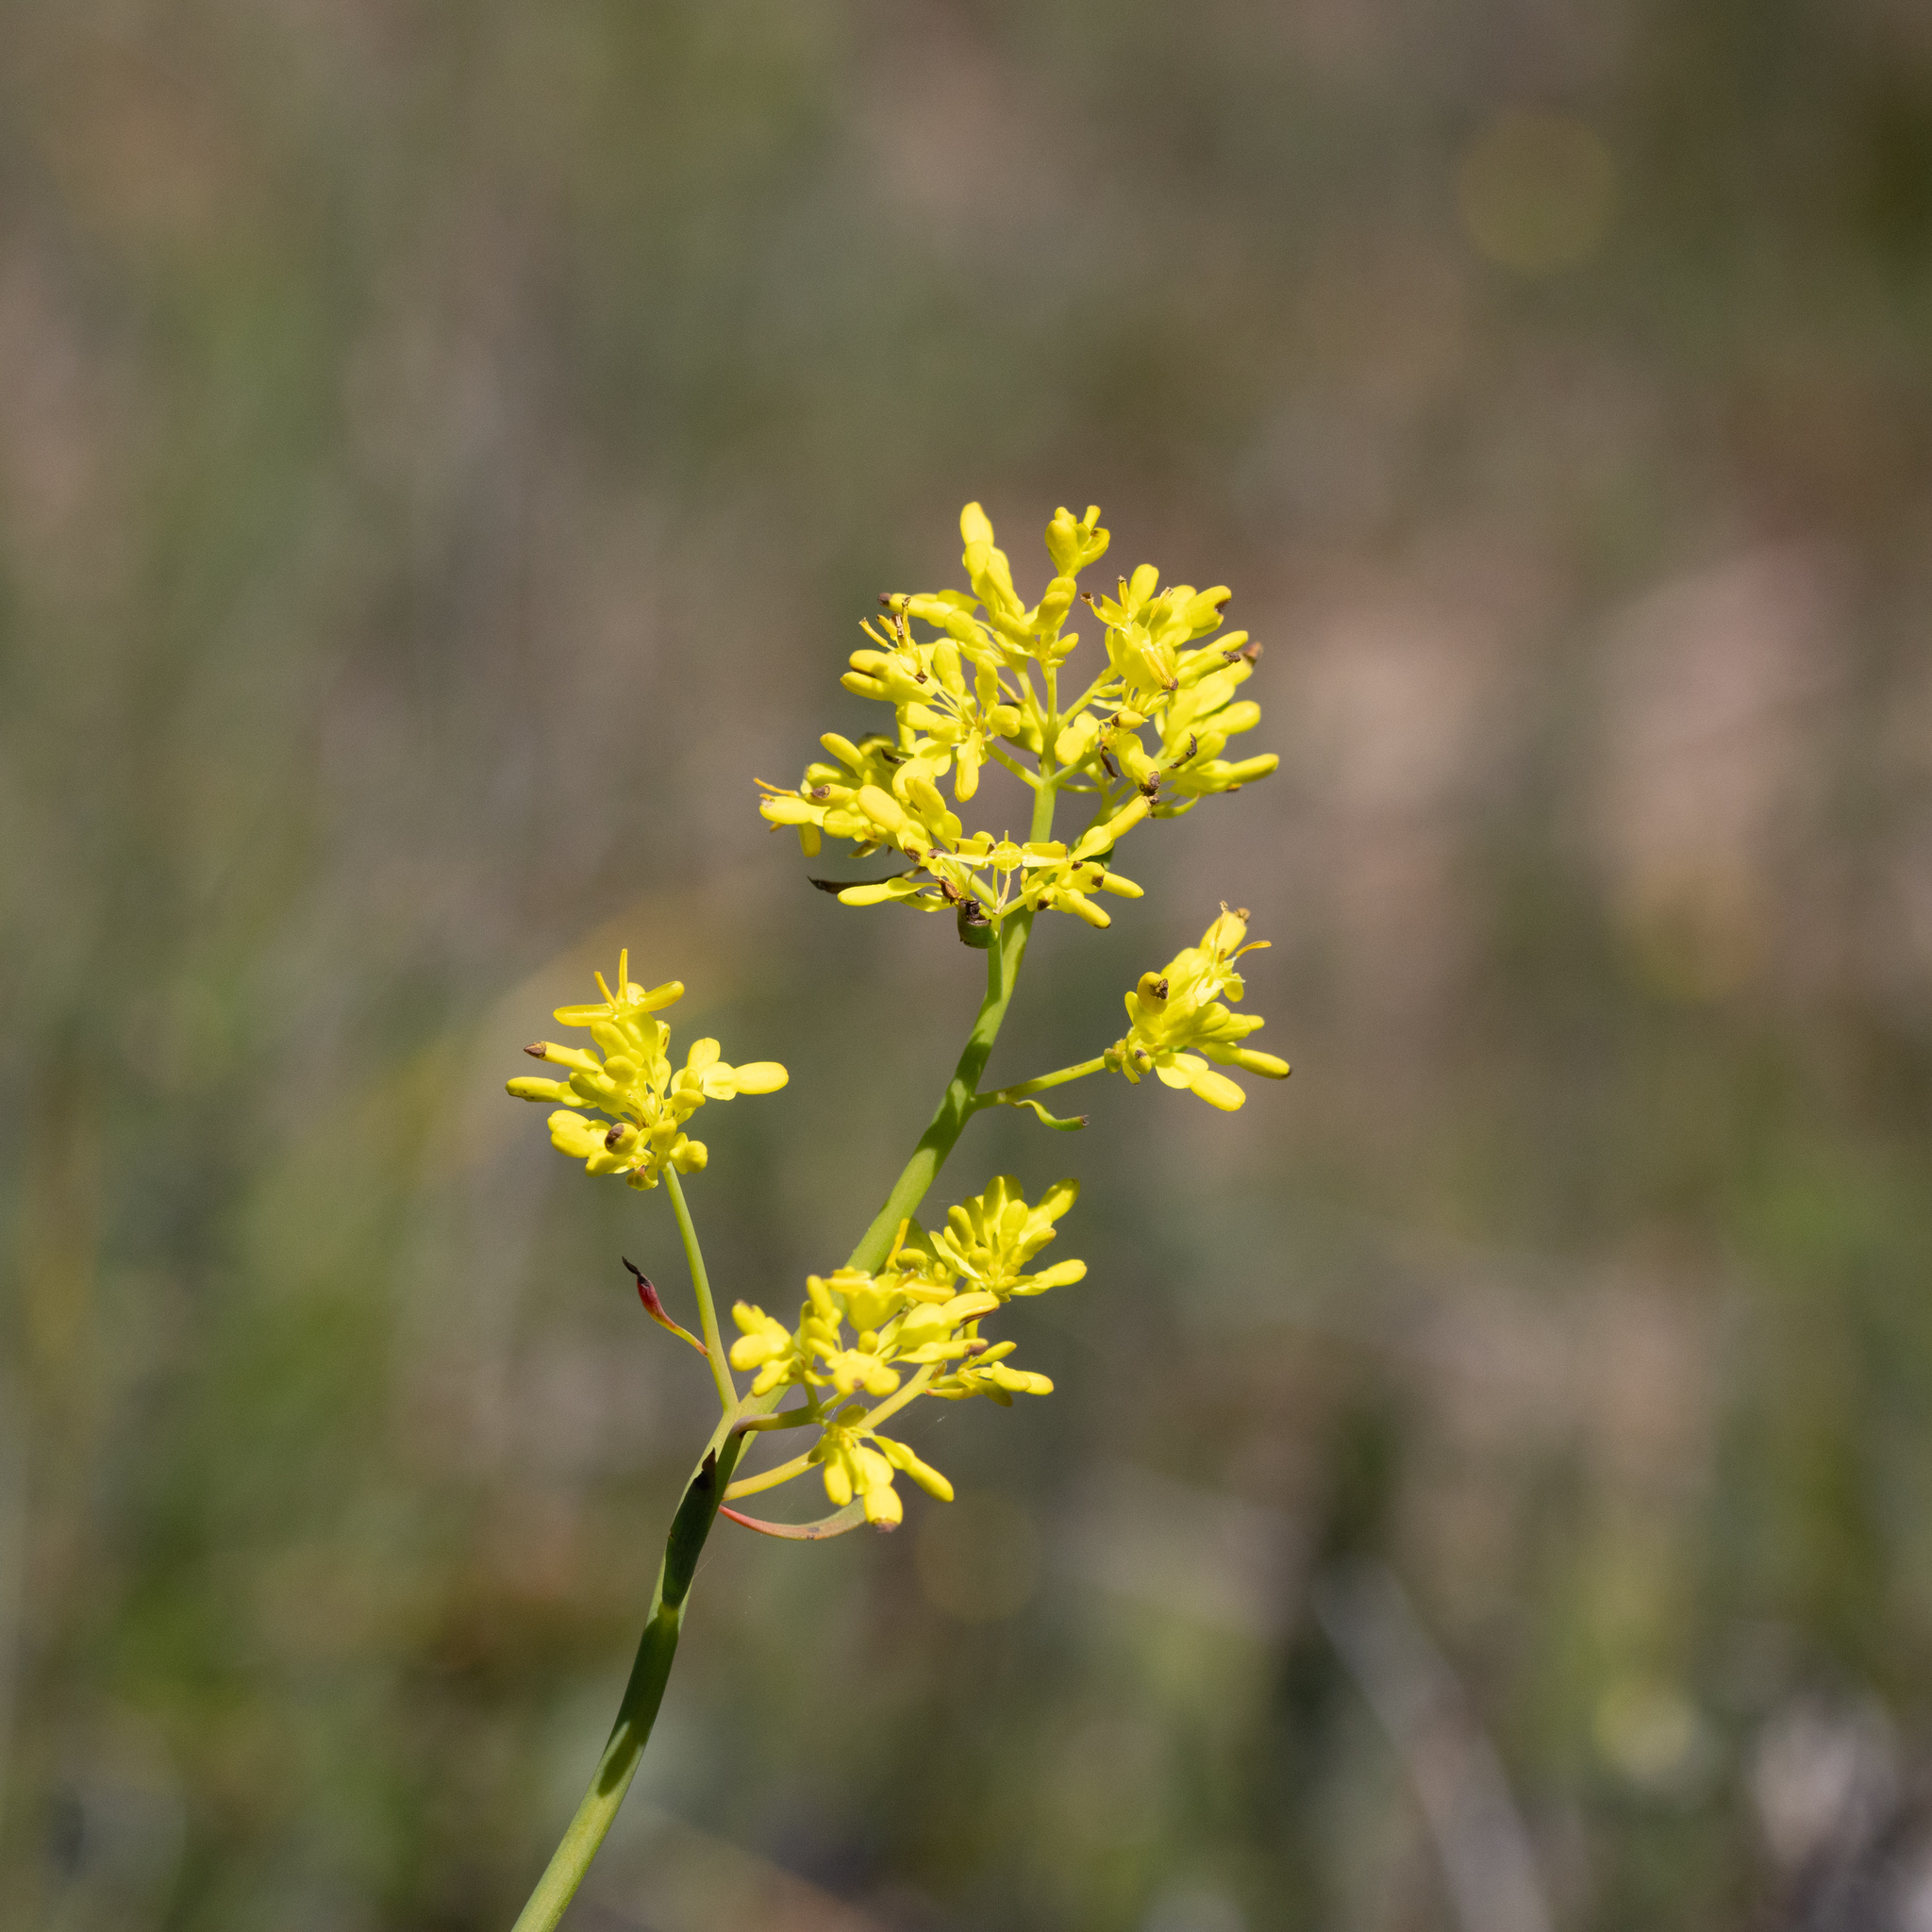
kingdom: Plantae
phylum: Tracheophyta
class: Magnoliopsida
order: Saxifragales
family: Haloragaceae
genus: Glischrocaryon
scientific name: Glischrocaryon behrii
